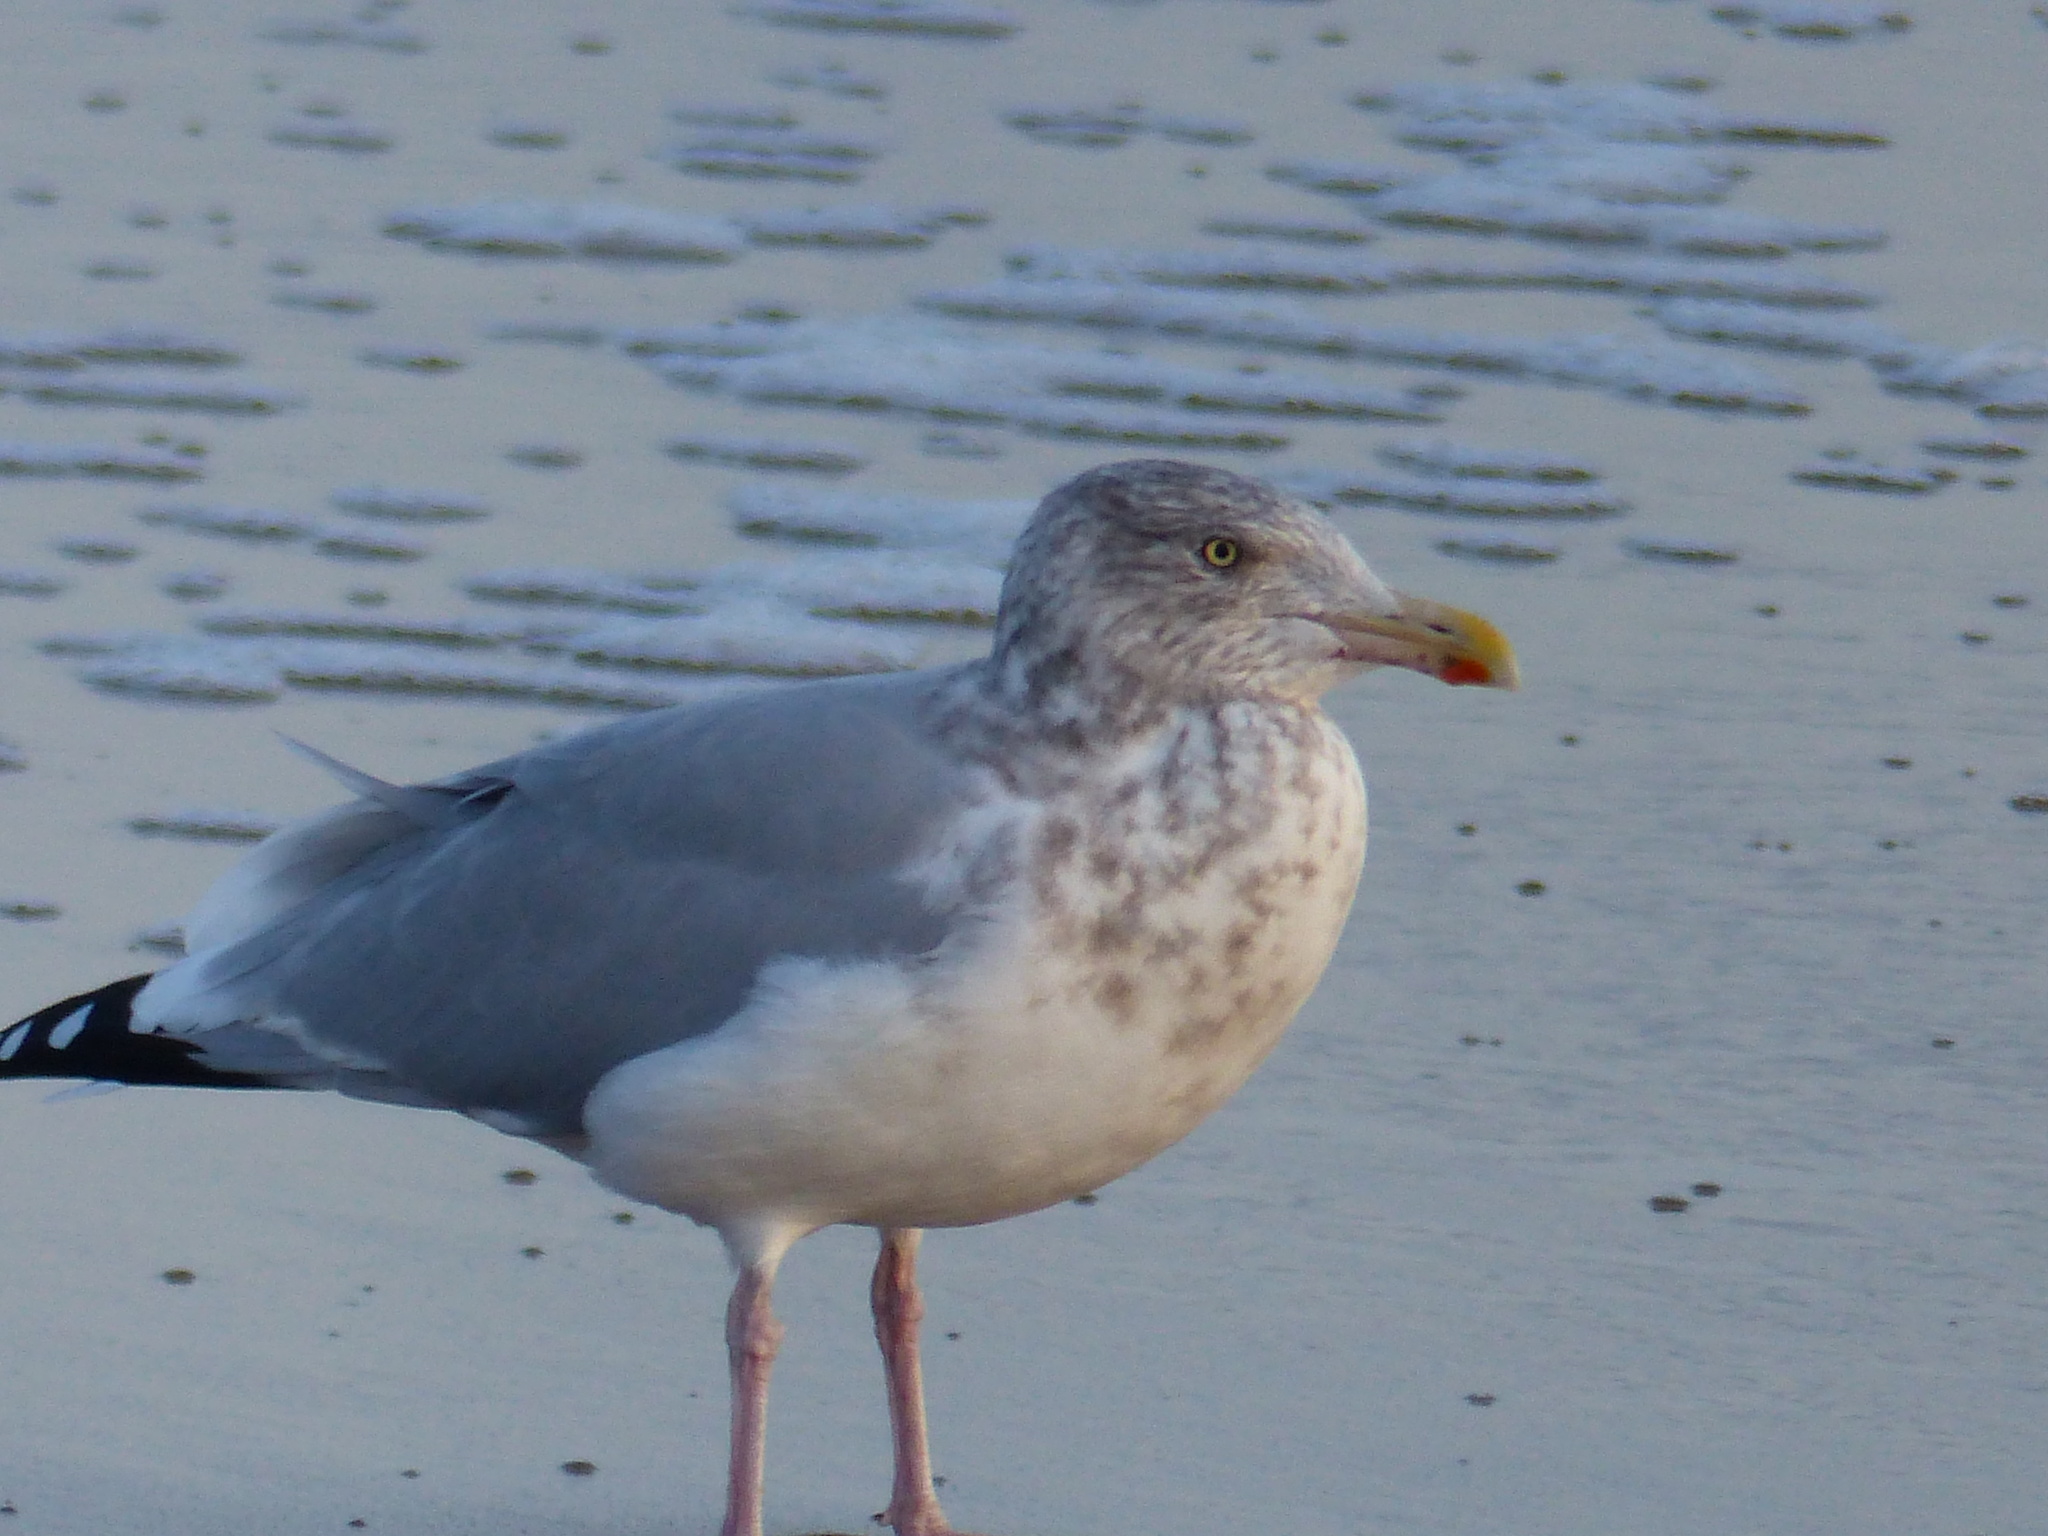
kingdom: Animalia
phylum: Chordata
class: Aves
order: Charadriiformes
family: Laridae
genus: Larus
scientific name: Larus argentatus
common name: Herring gull
